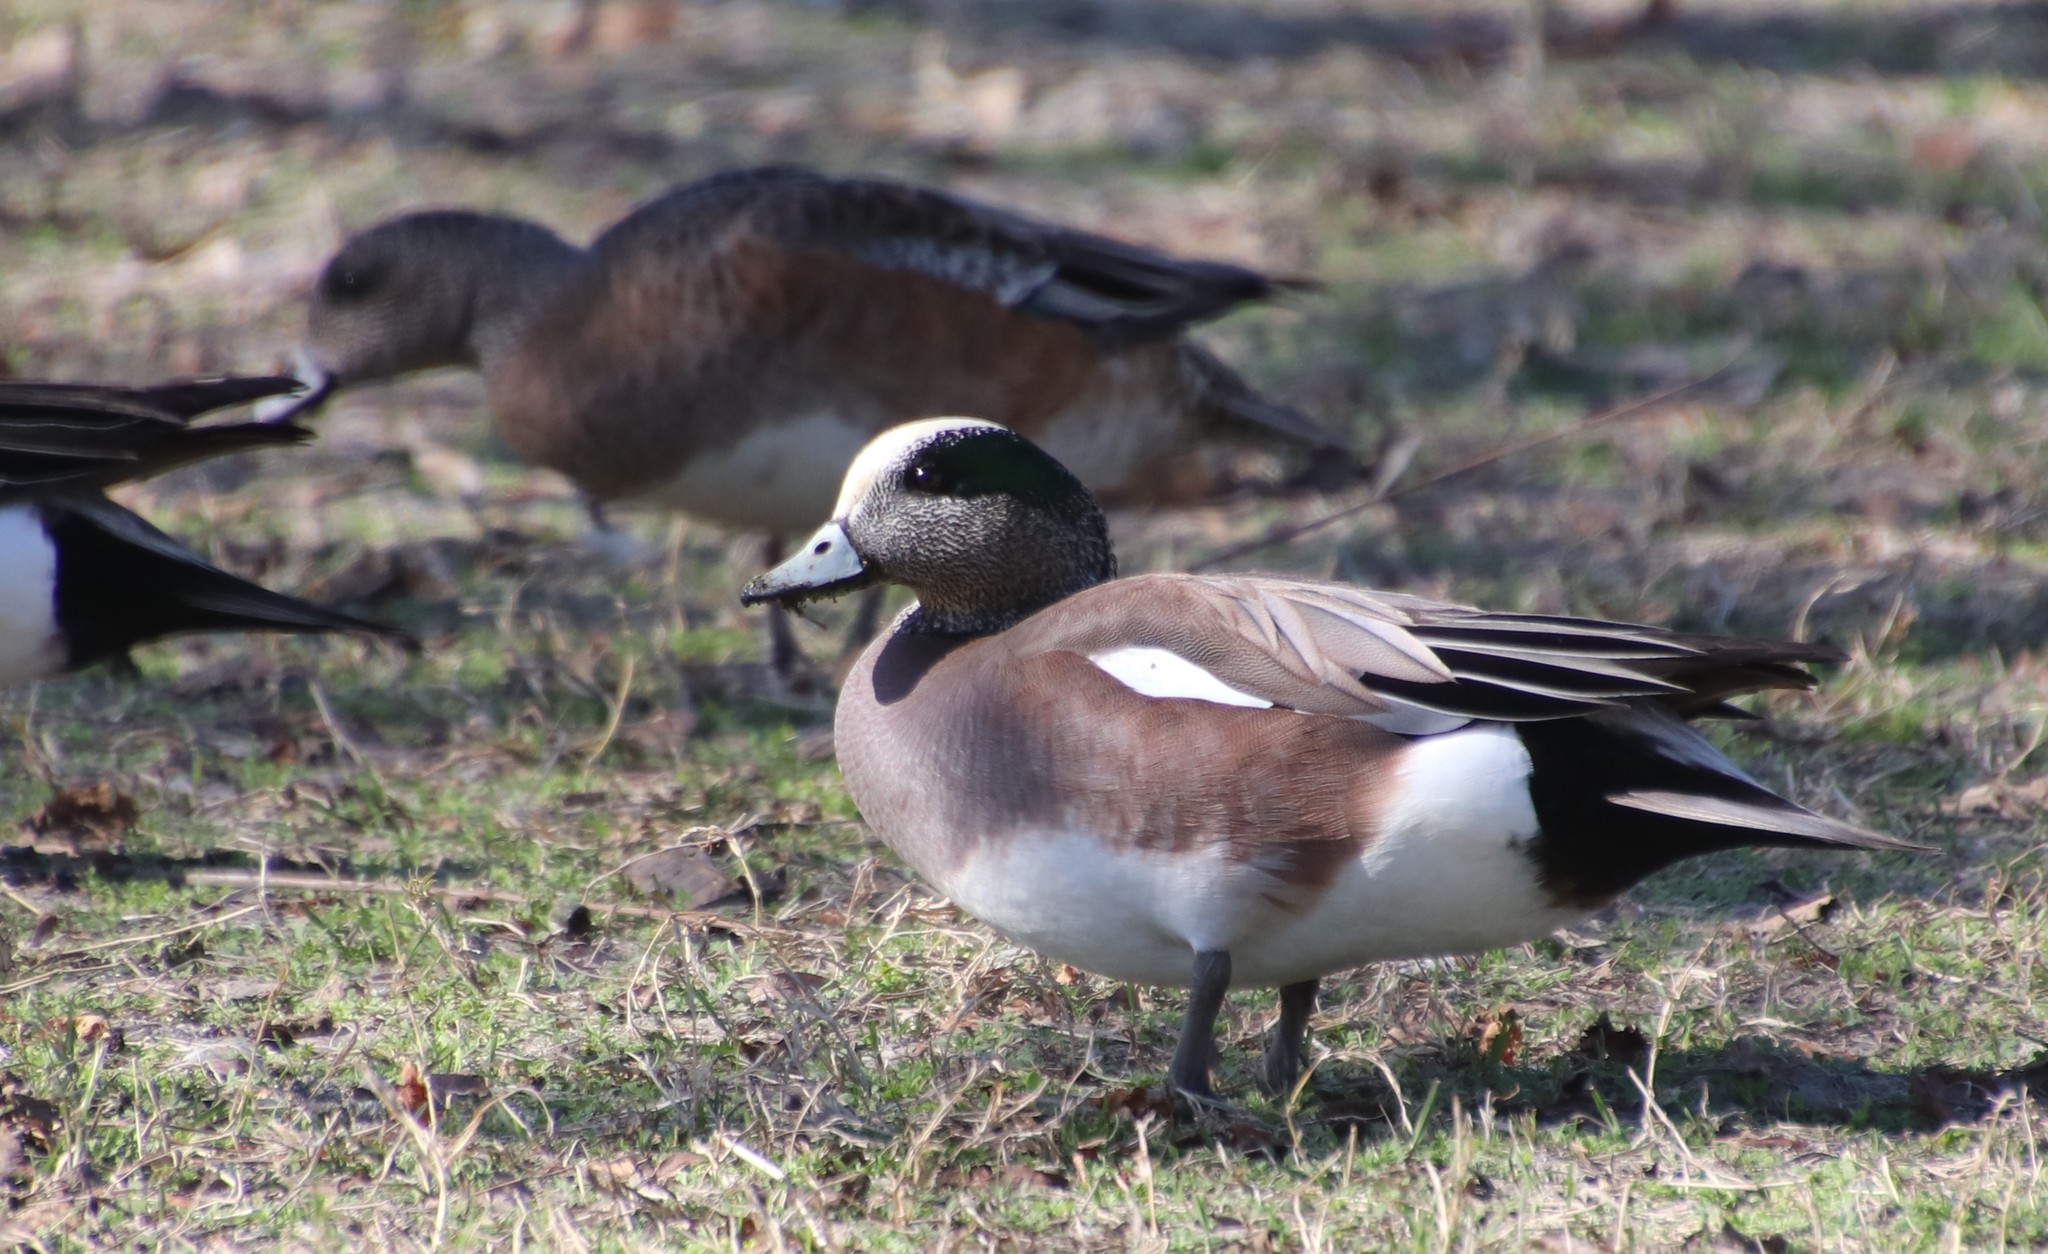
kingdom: Animalia
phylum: Chordata
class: Aves
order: Anseriformes
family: Anatidae
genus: Mareca
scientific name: Mareca americana
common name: American wigeon
